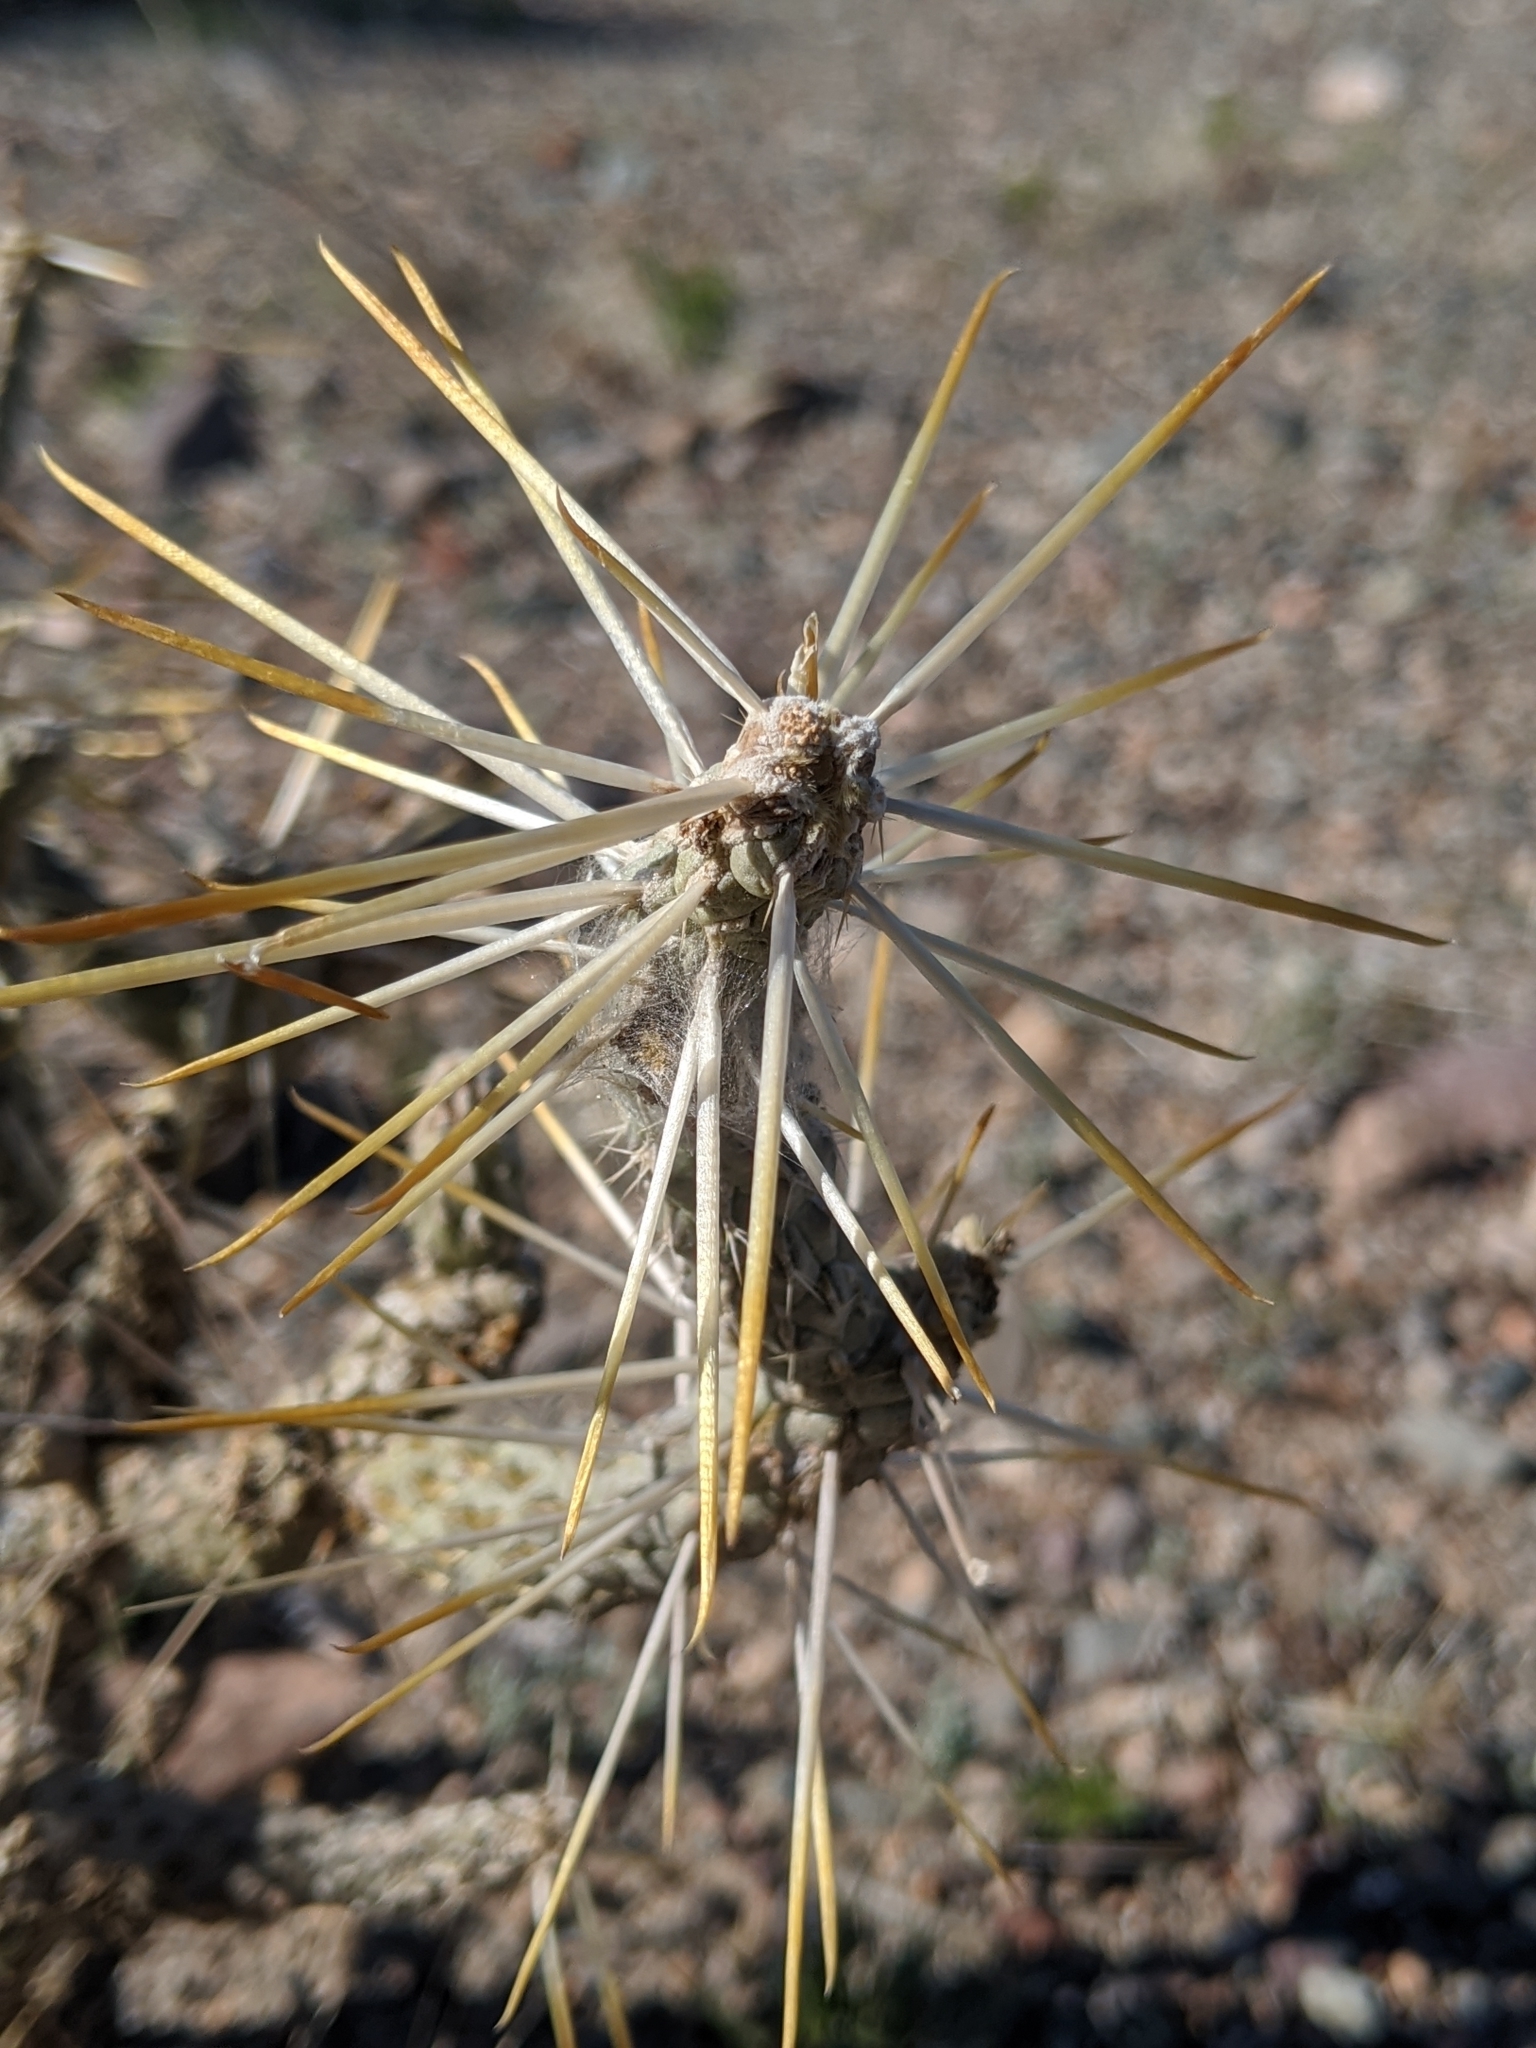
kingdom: Plantae
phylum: Tracheophyta
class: Magnoliopsida
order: Caryophyllales
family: Cactaceae
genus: Cylindropuntia
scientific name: Cylindropuntia ramosissima
